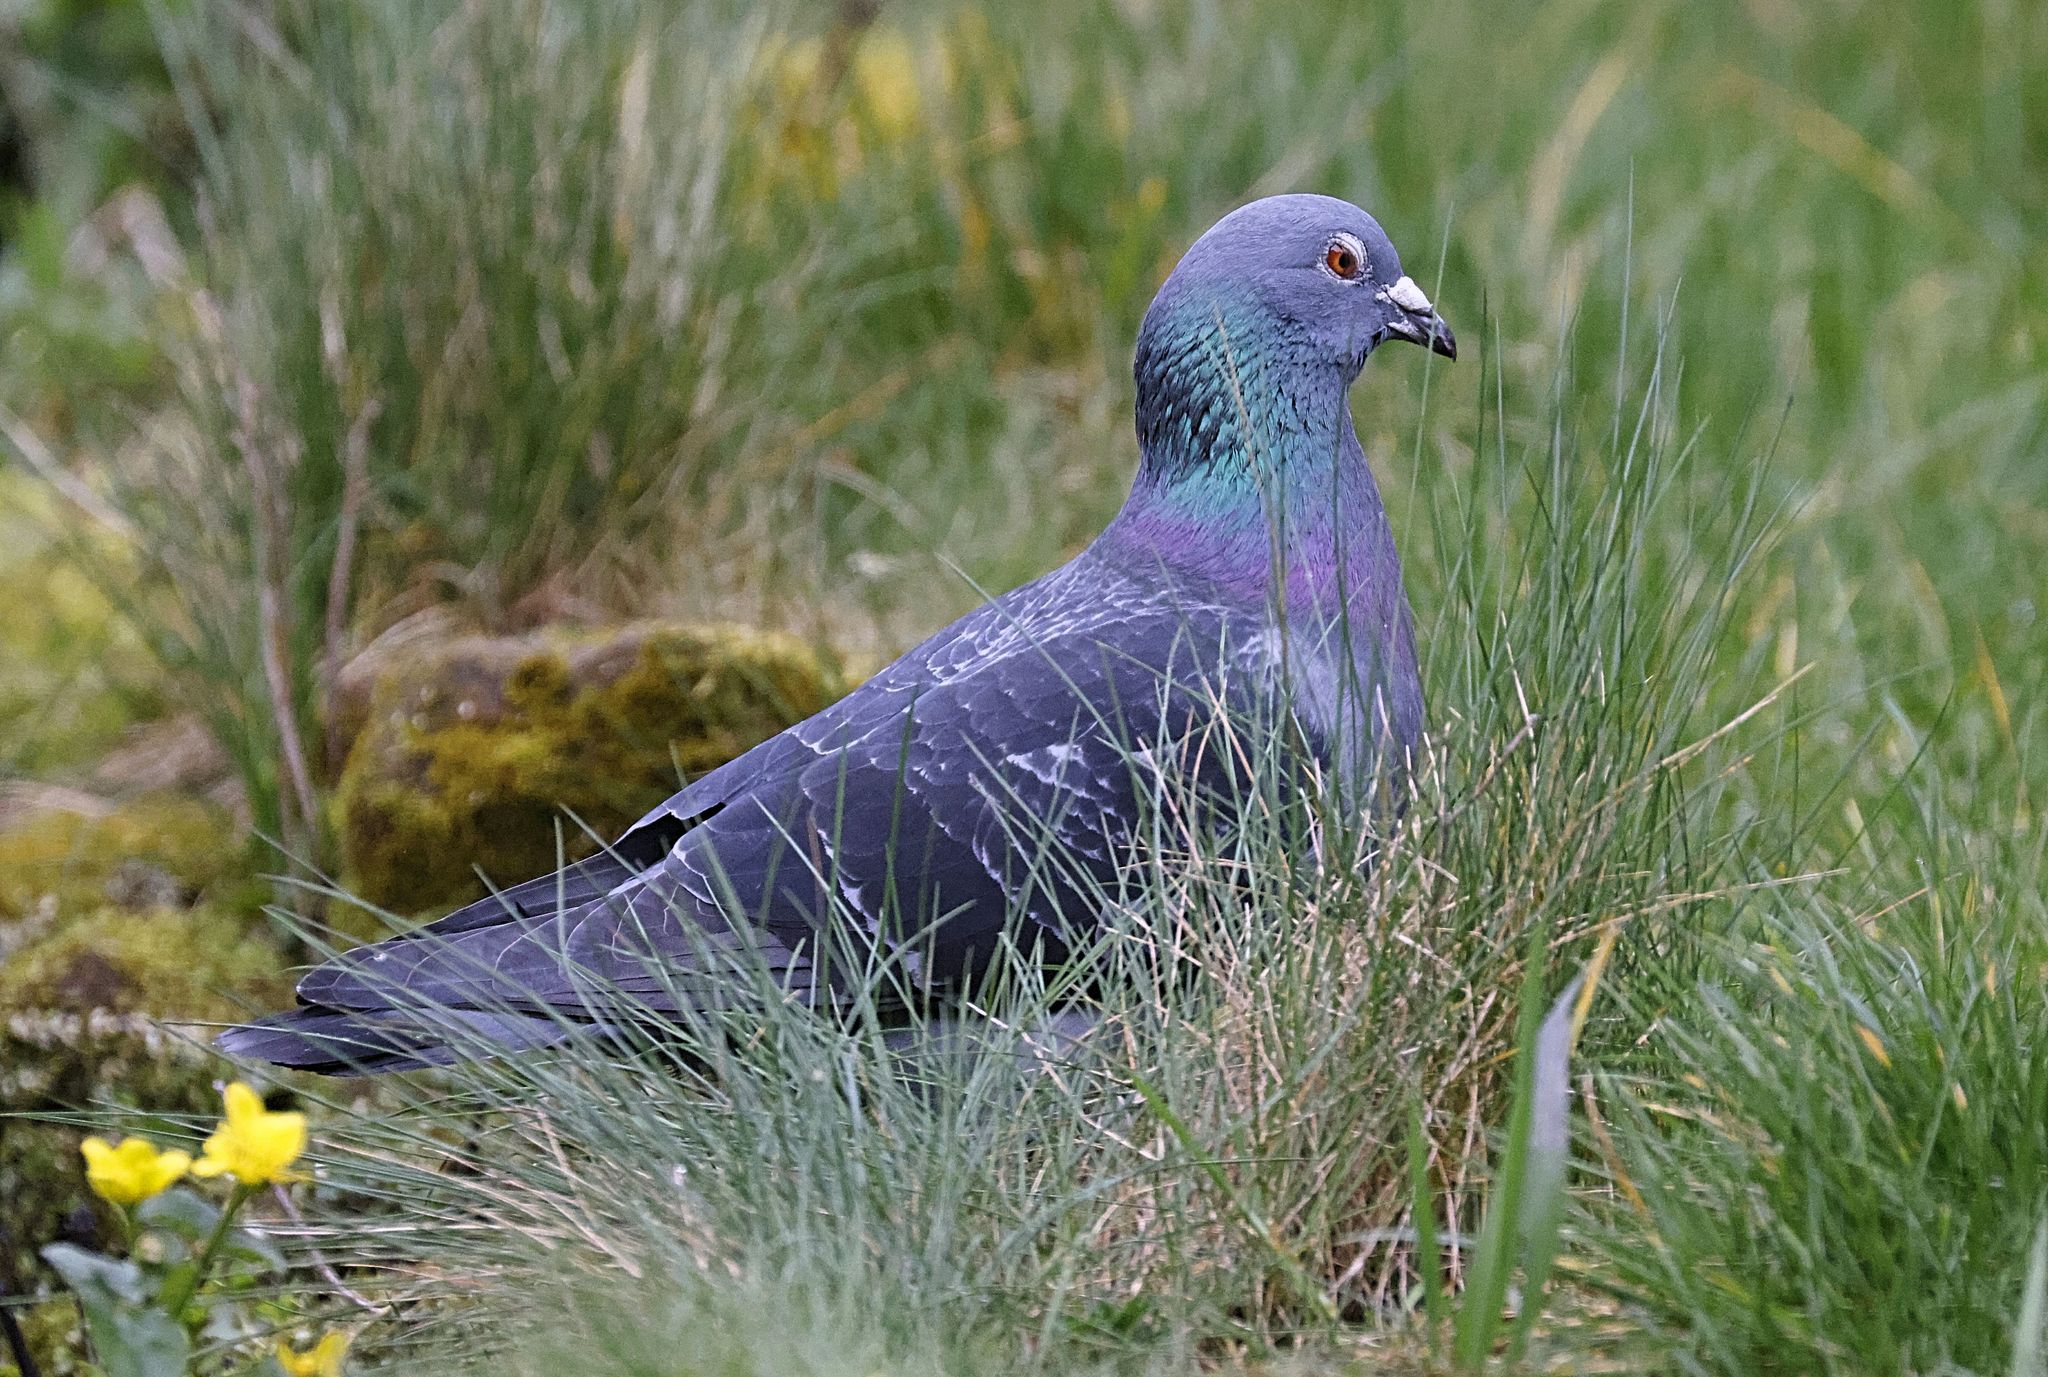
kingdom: Animalia
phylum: Chordata
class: Aves
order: Columbiformes
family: Columbidae
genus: Columba
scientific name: Columba livia
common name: Rock pigeon
